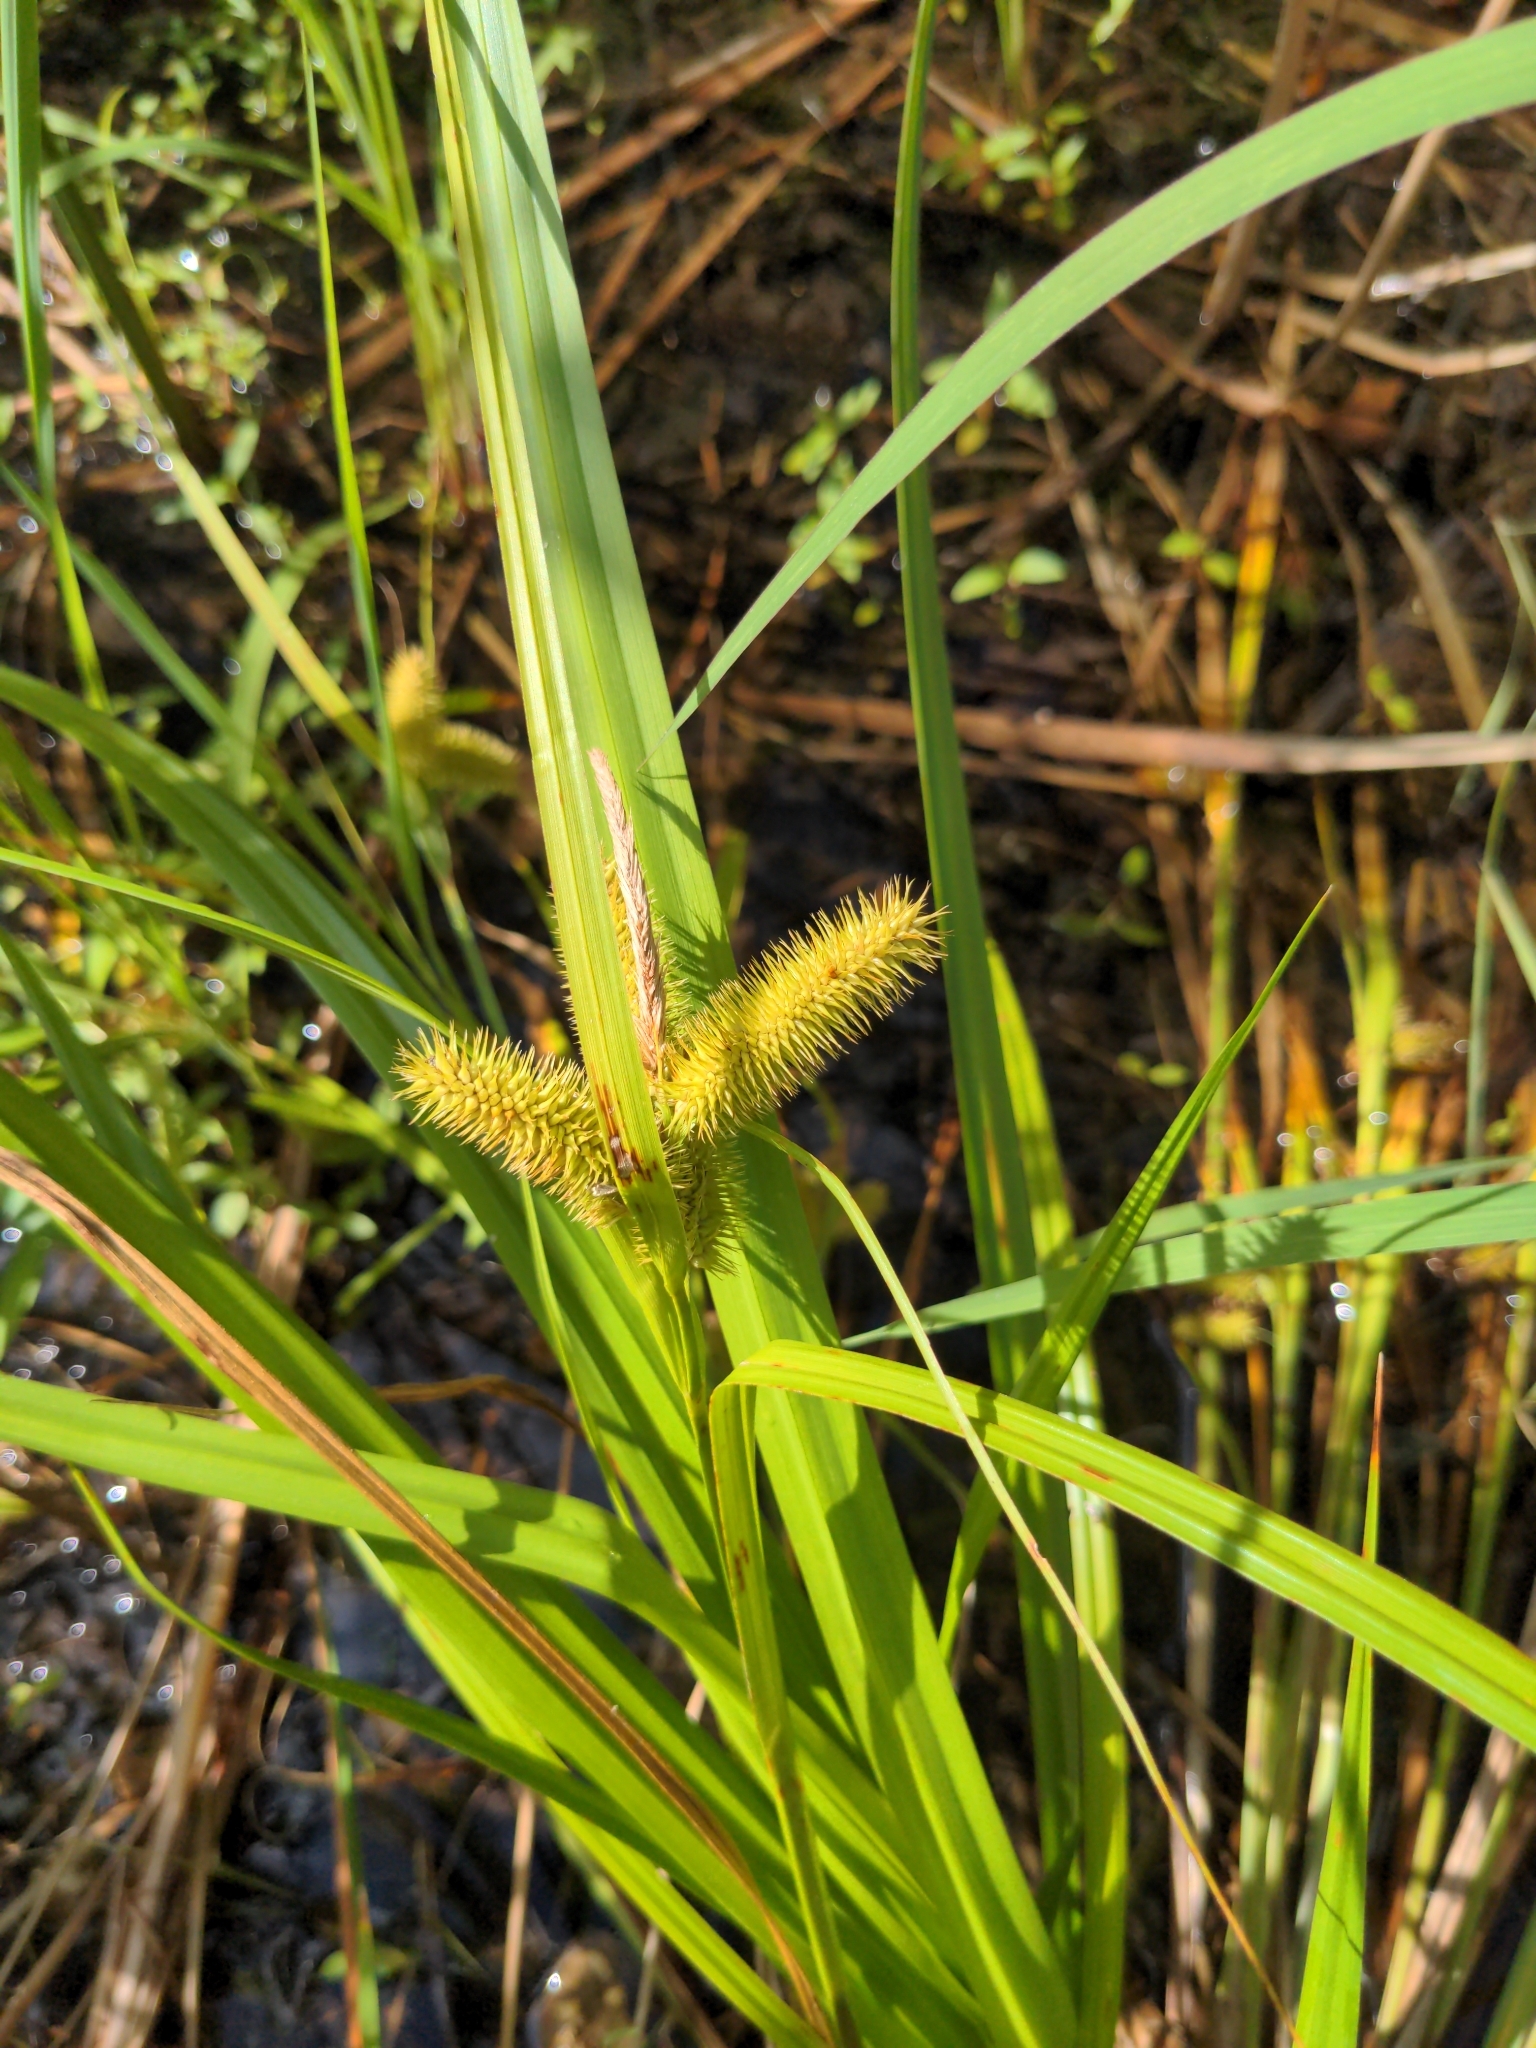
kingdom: Plantae
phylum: Tracheophyta
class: Liliopsida
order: Poales
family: Cyperaceae
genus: Carex
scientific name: Carex comosa
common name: Bristly sedge
